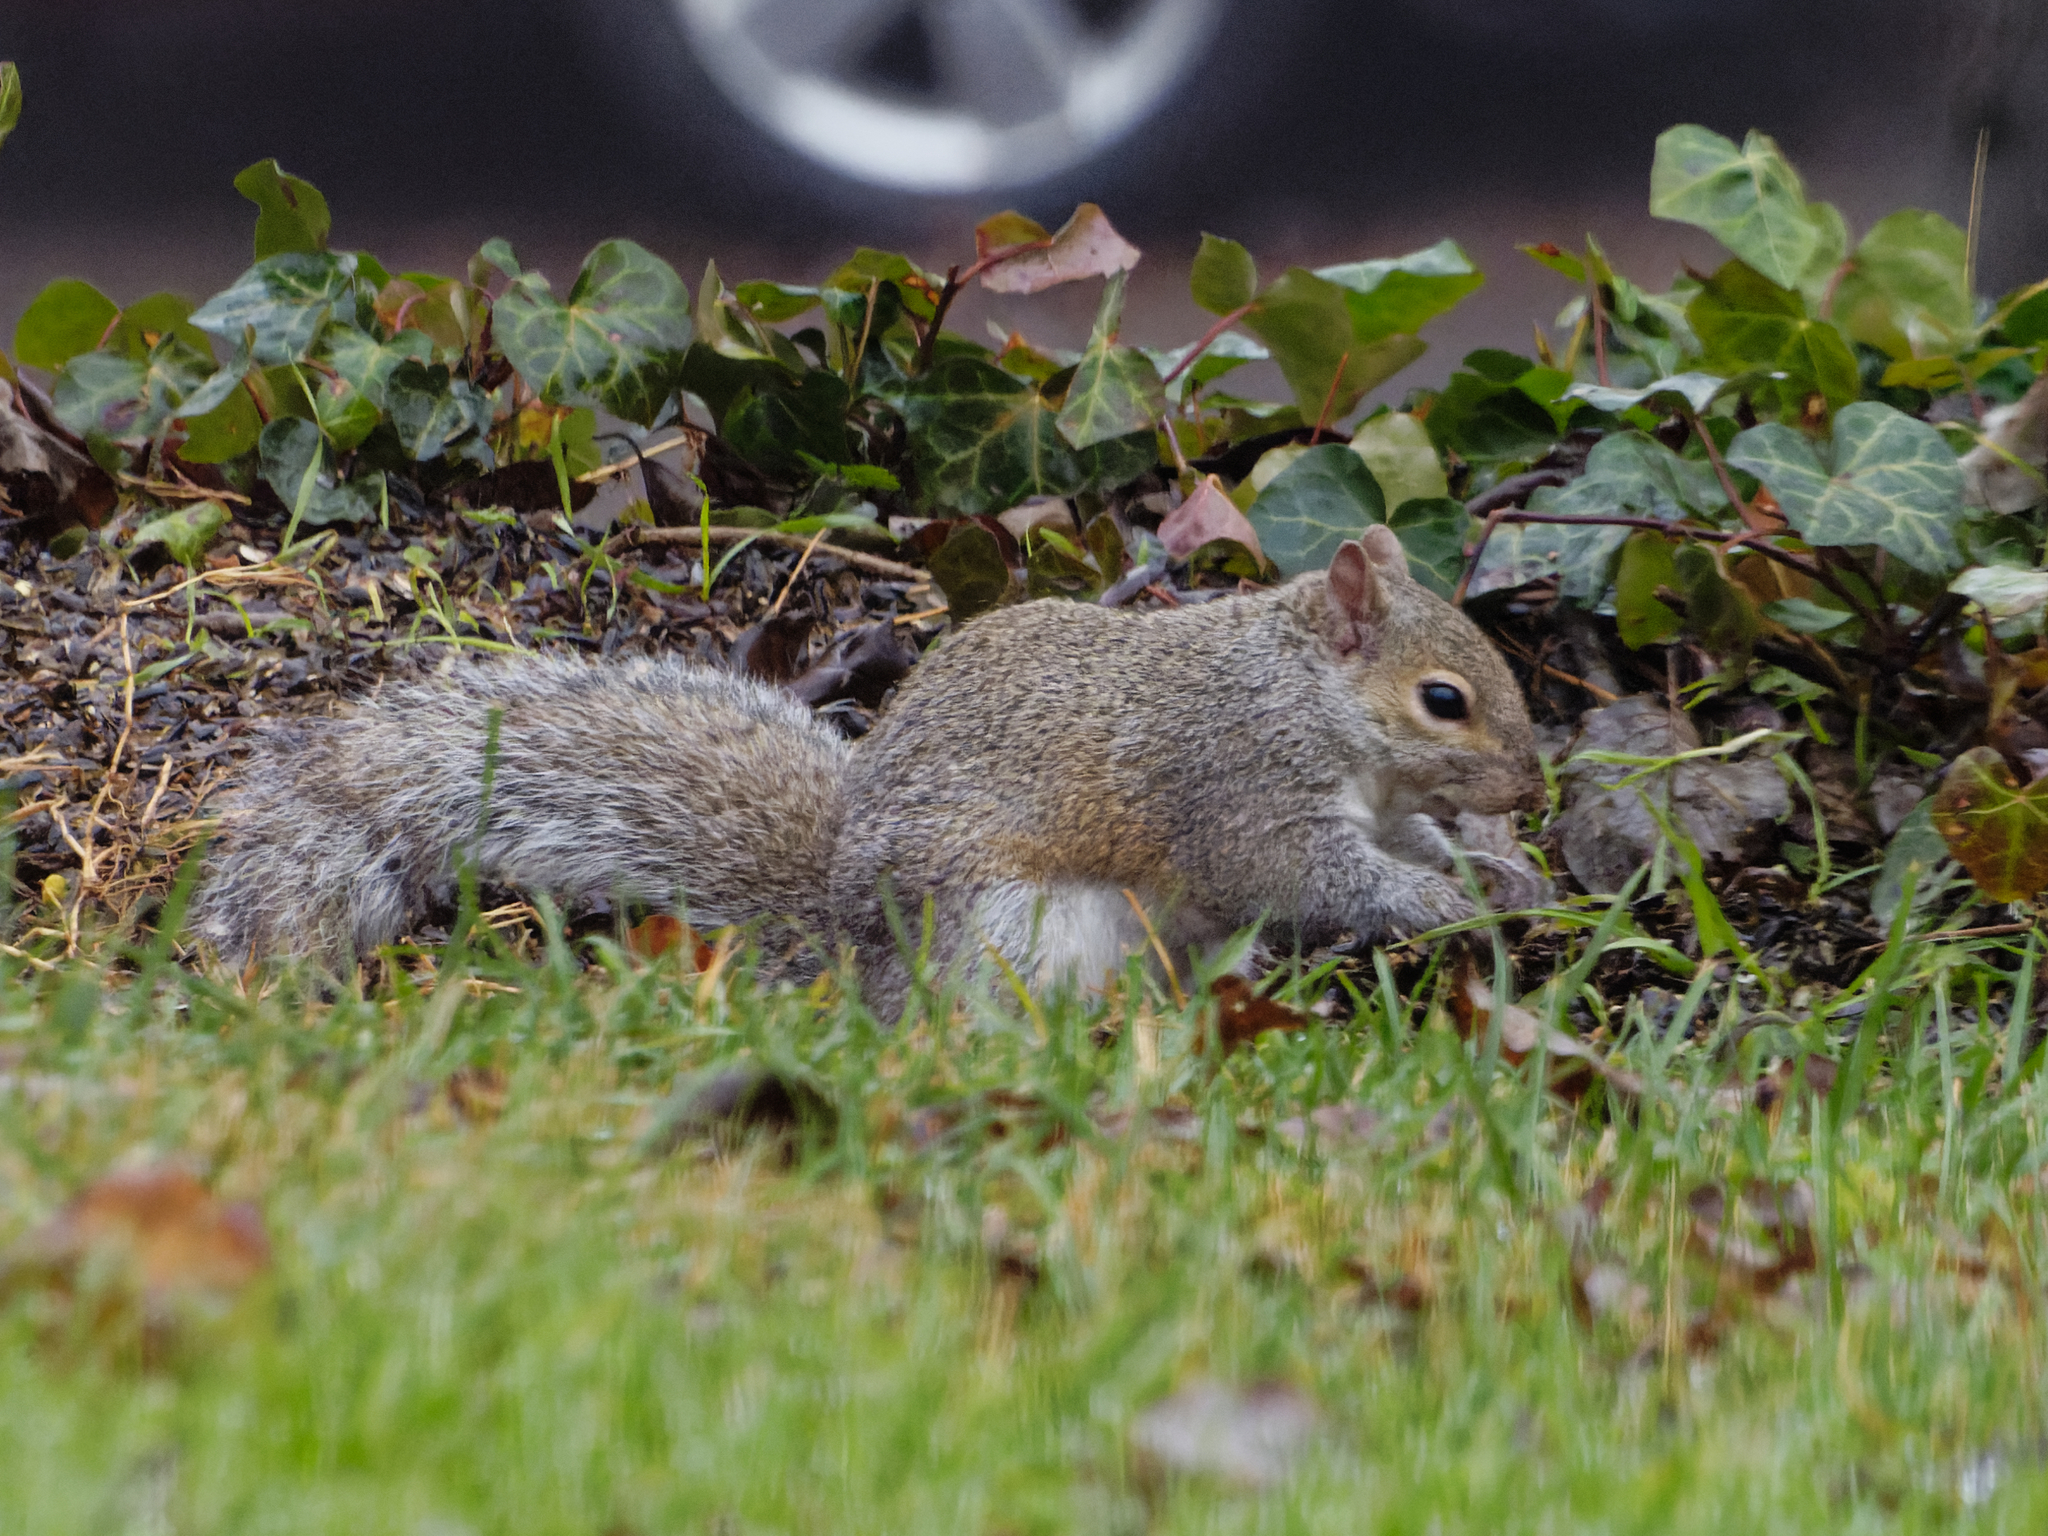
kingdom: Animalia
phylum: Chordata
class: Mammalia
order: Rodentia
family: Sciuridae
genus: Sciurus
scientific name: Sciurus carolinensis
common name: Eastern gray squirrel
